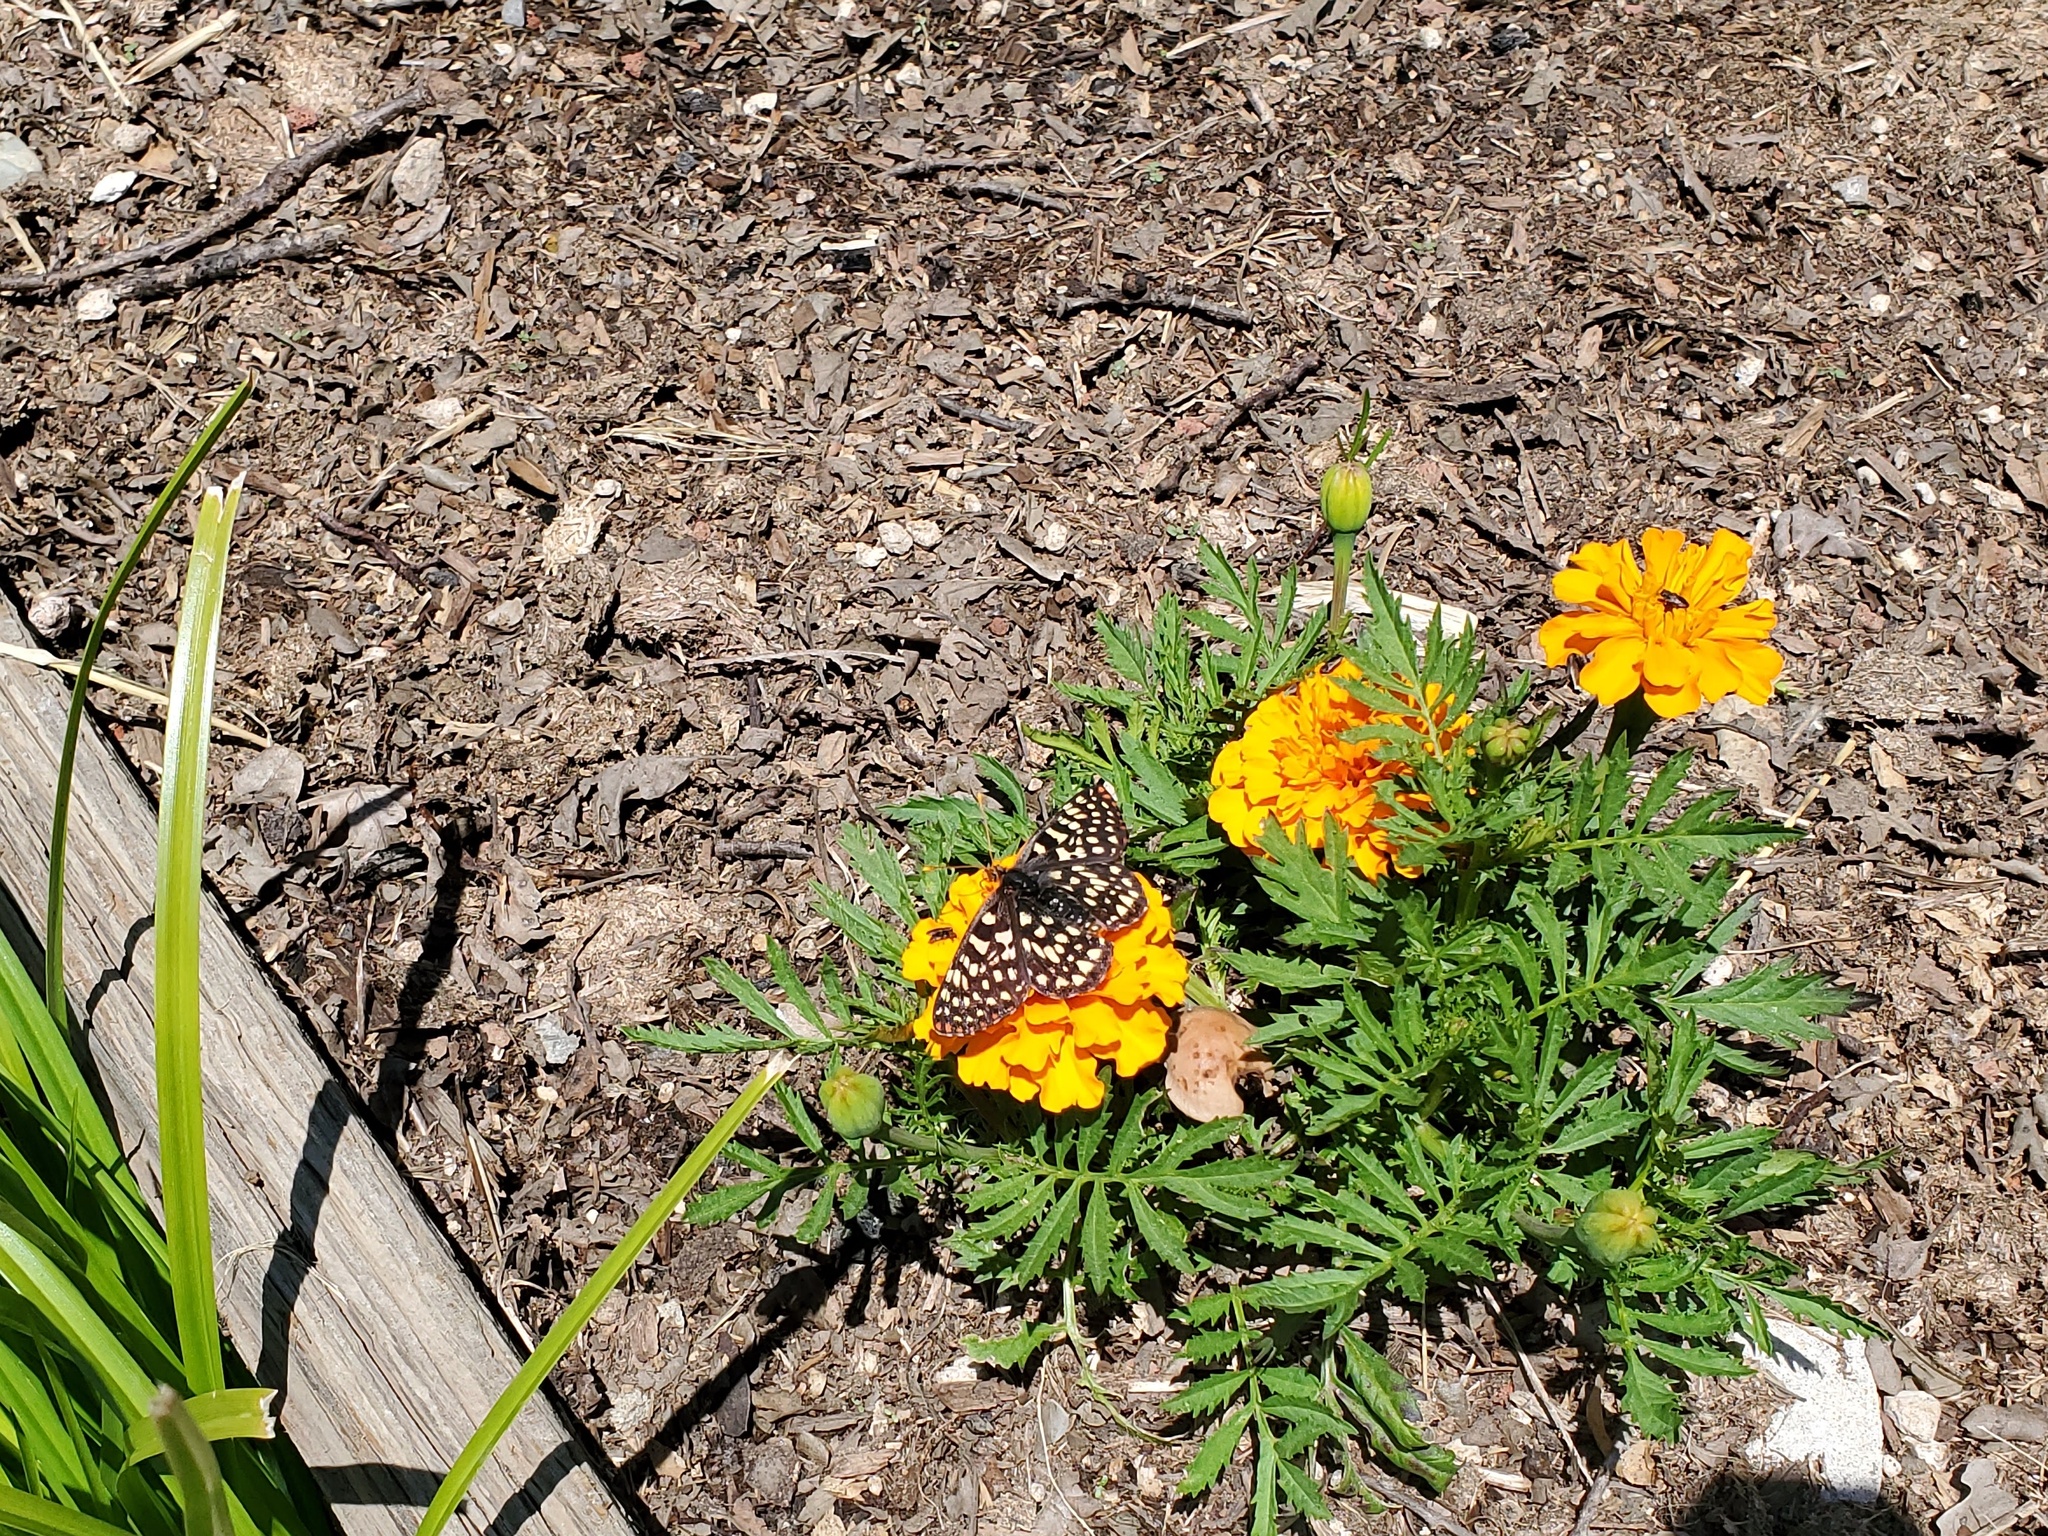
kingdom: Animalia
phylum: Arthropoda
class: Insecta
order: Lepidoptera
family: Nymphalidae
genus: Occidryas
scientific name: Occidryas chalcedona
